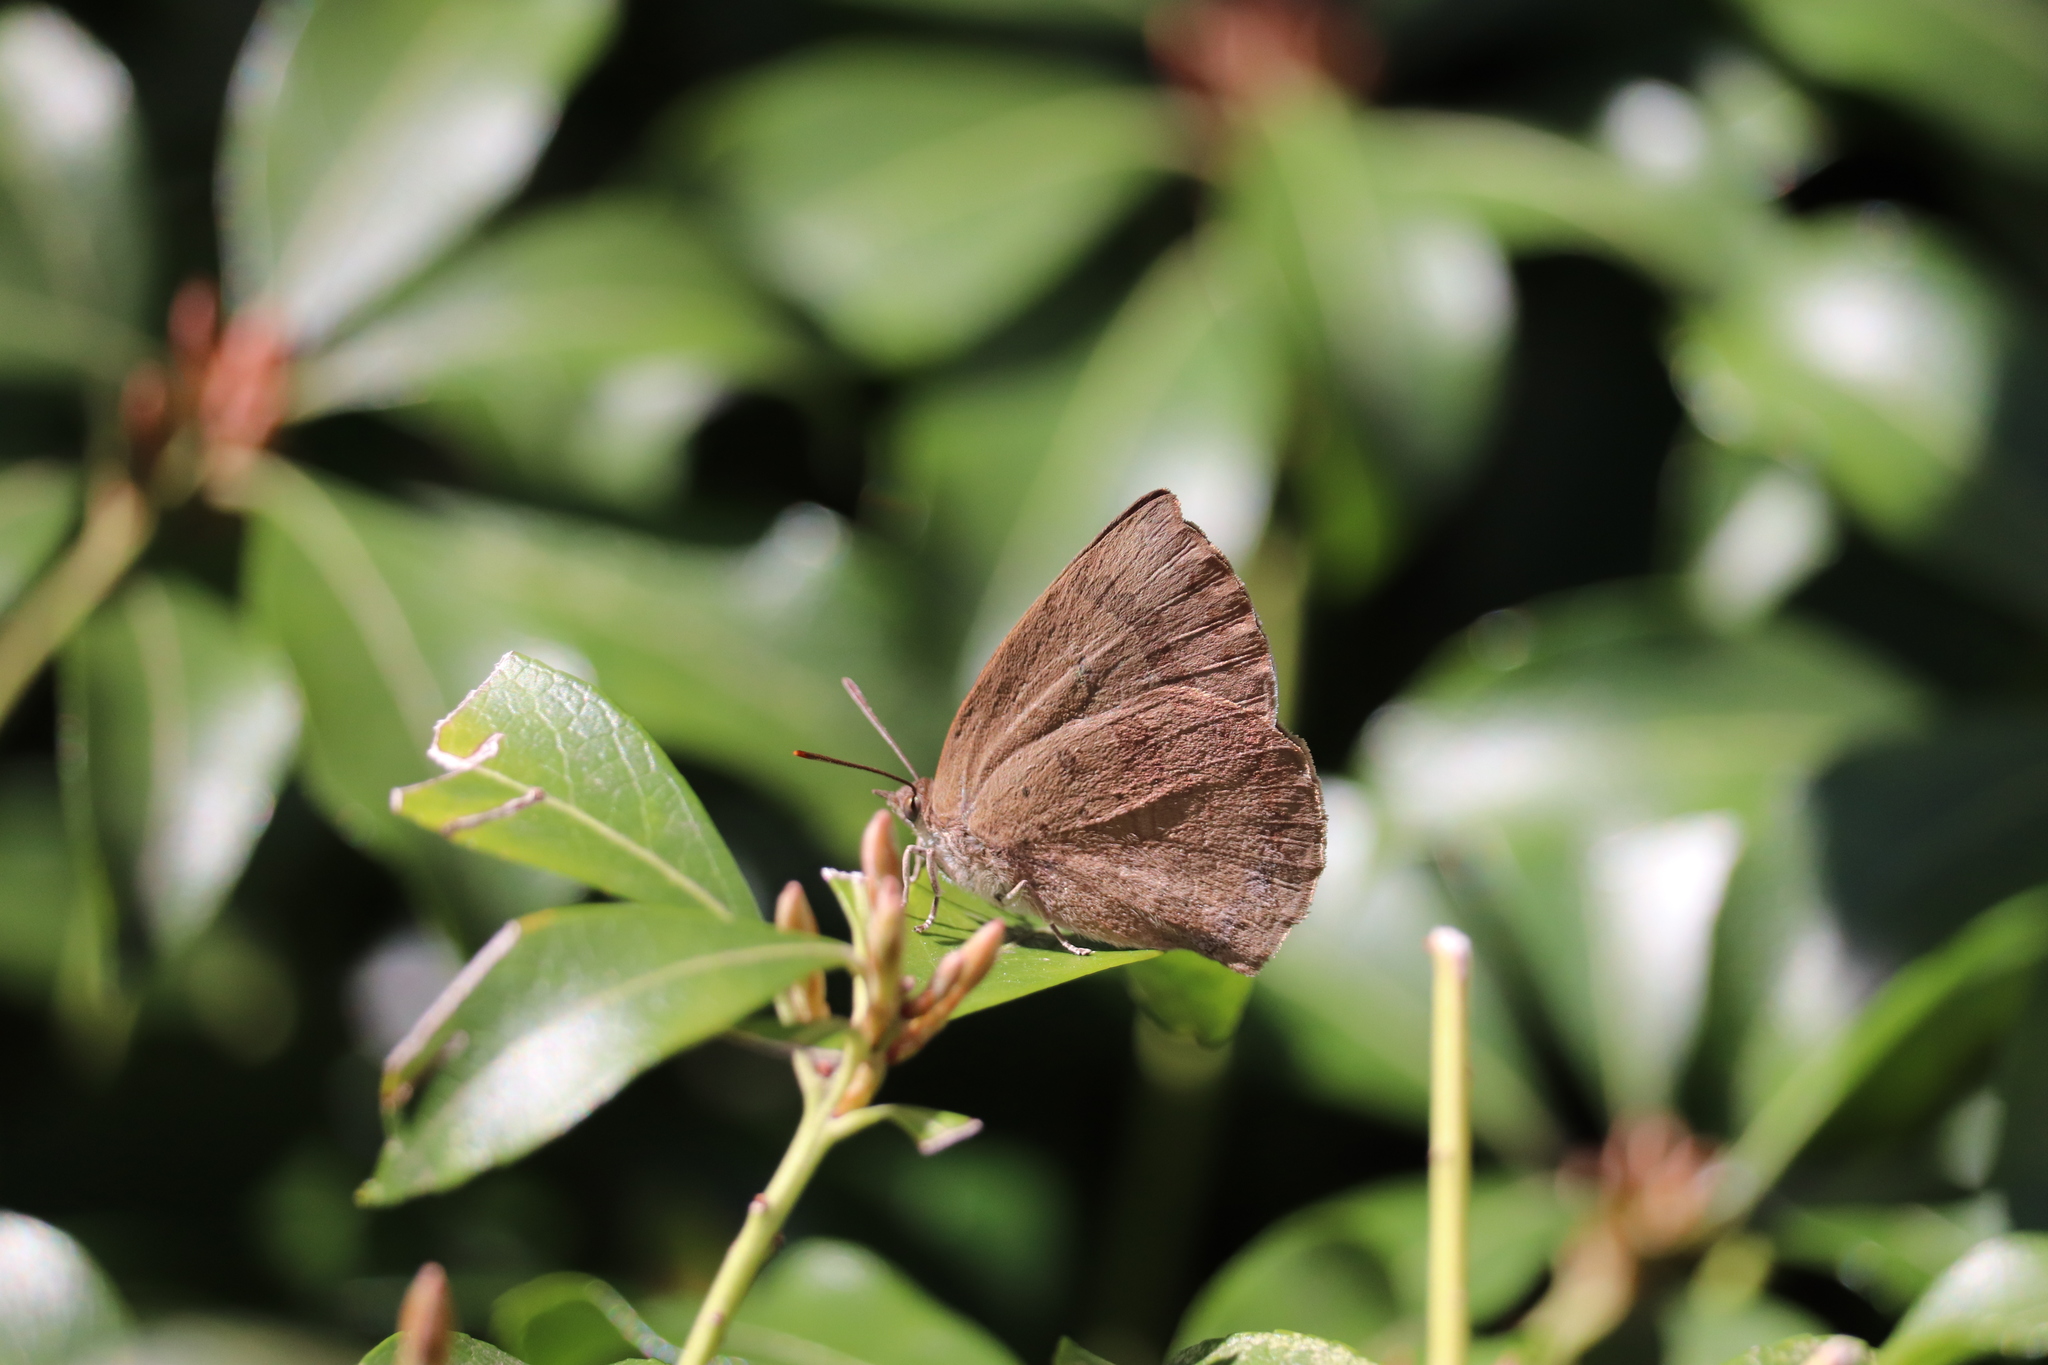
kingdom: Animalia
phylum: Arthropoda
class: Insecta
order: Lepidoptera
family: Lycaenidae
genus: Arhopala
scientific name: Arhopala japonica
